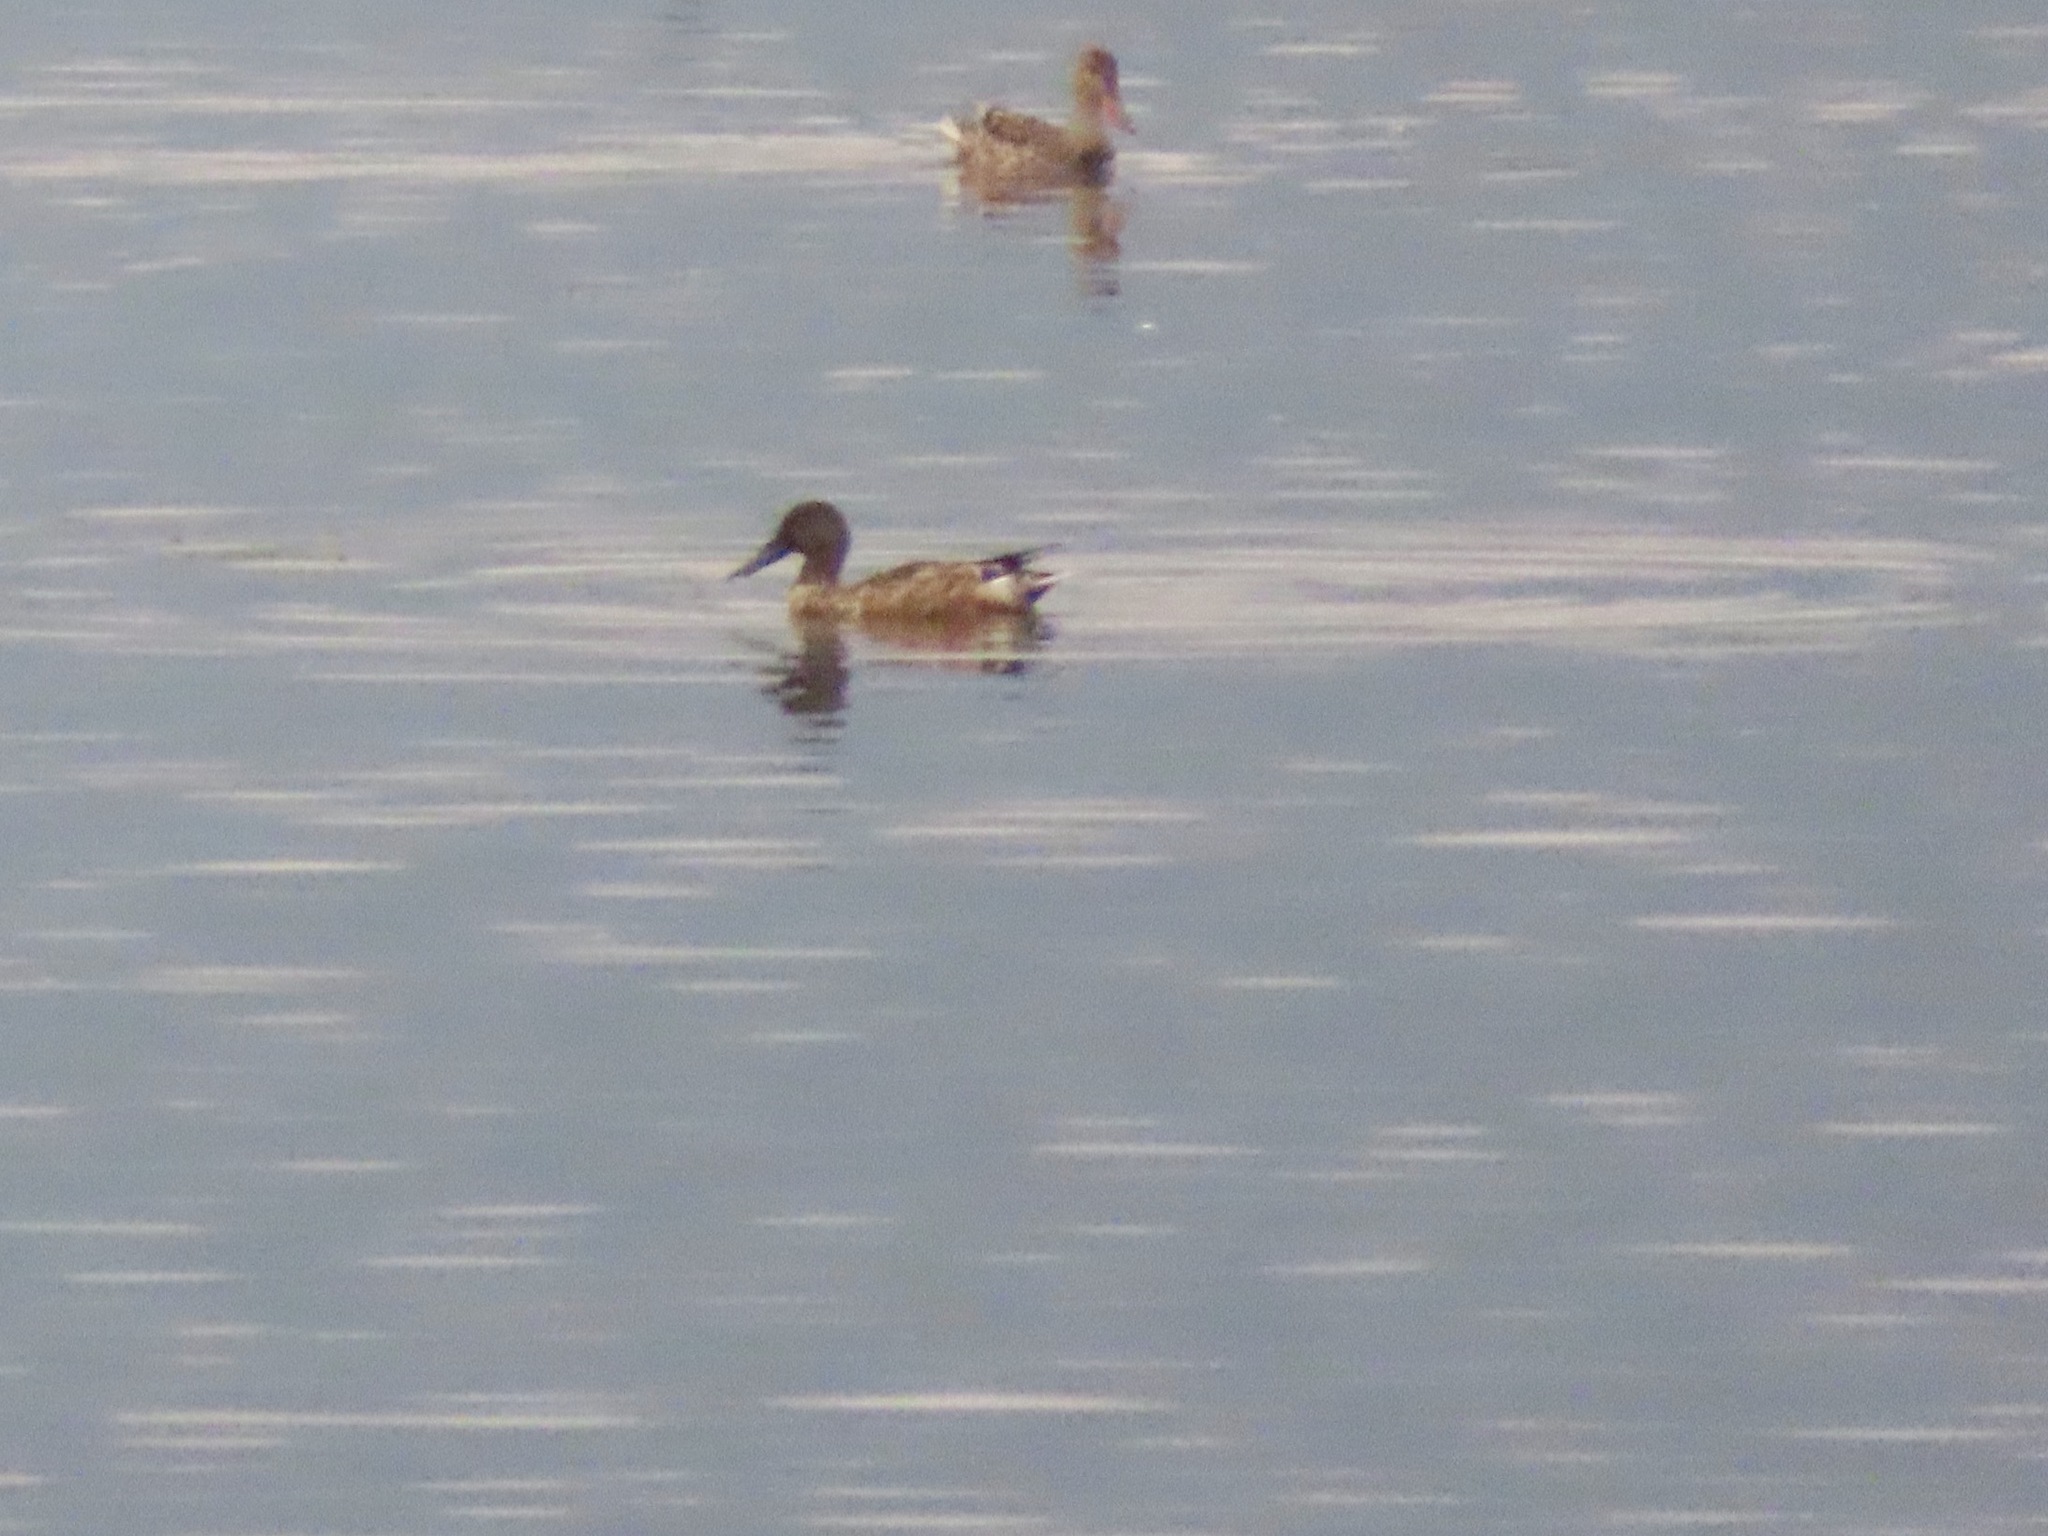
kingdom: Animalia
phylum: Chordata
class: Aves
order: Anseriformes
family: Anatidae
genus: Spatula
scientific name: Spatula clypeata
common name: Northern shoveler
